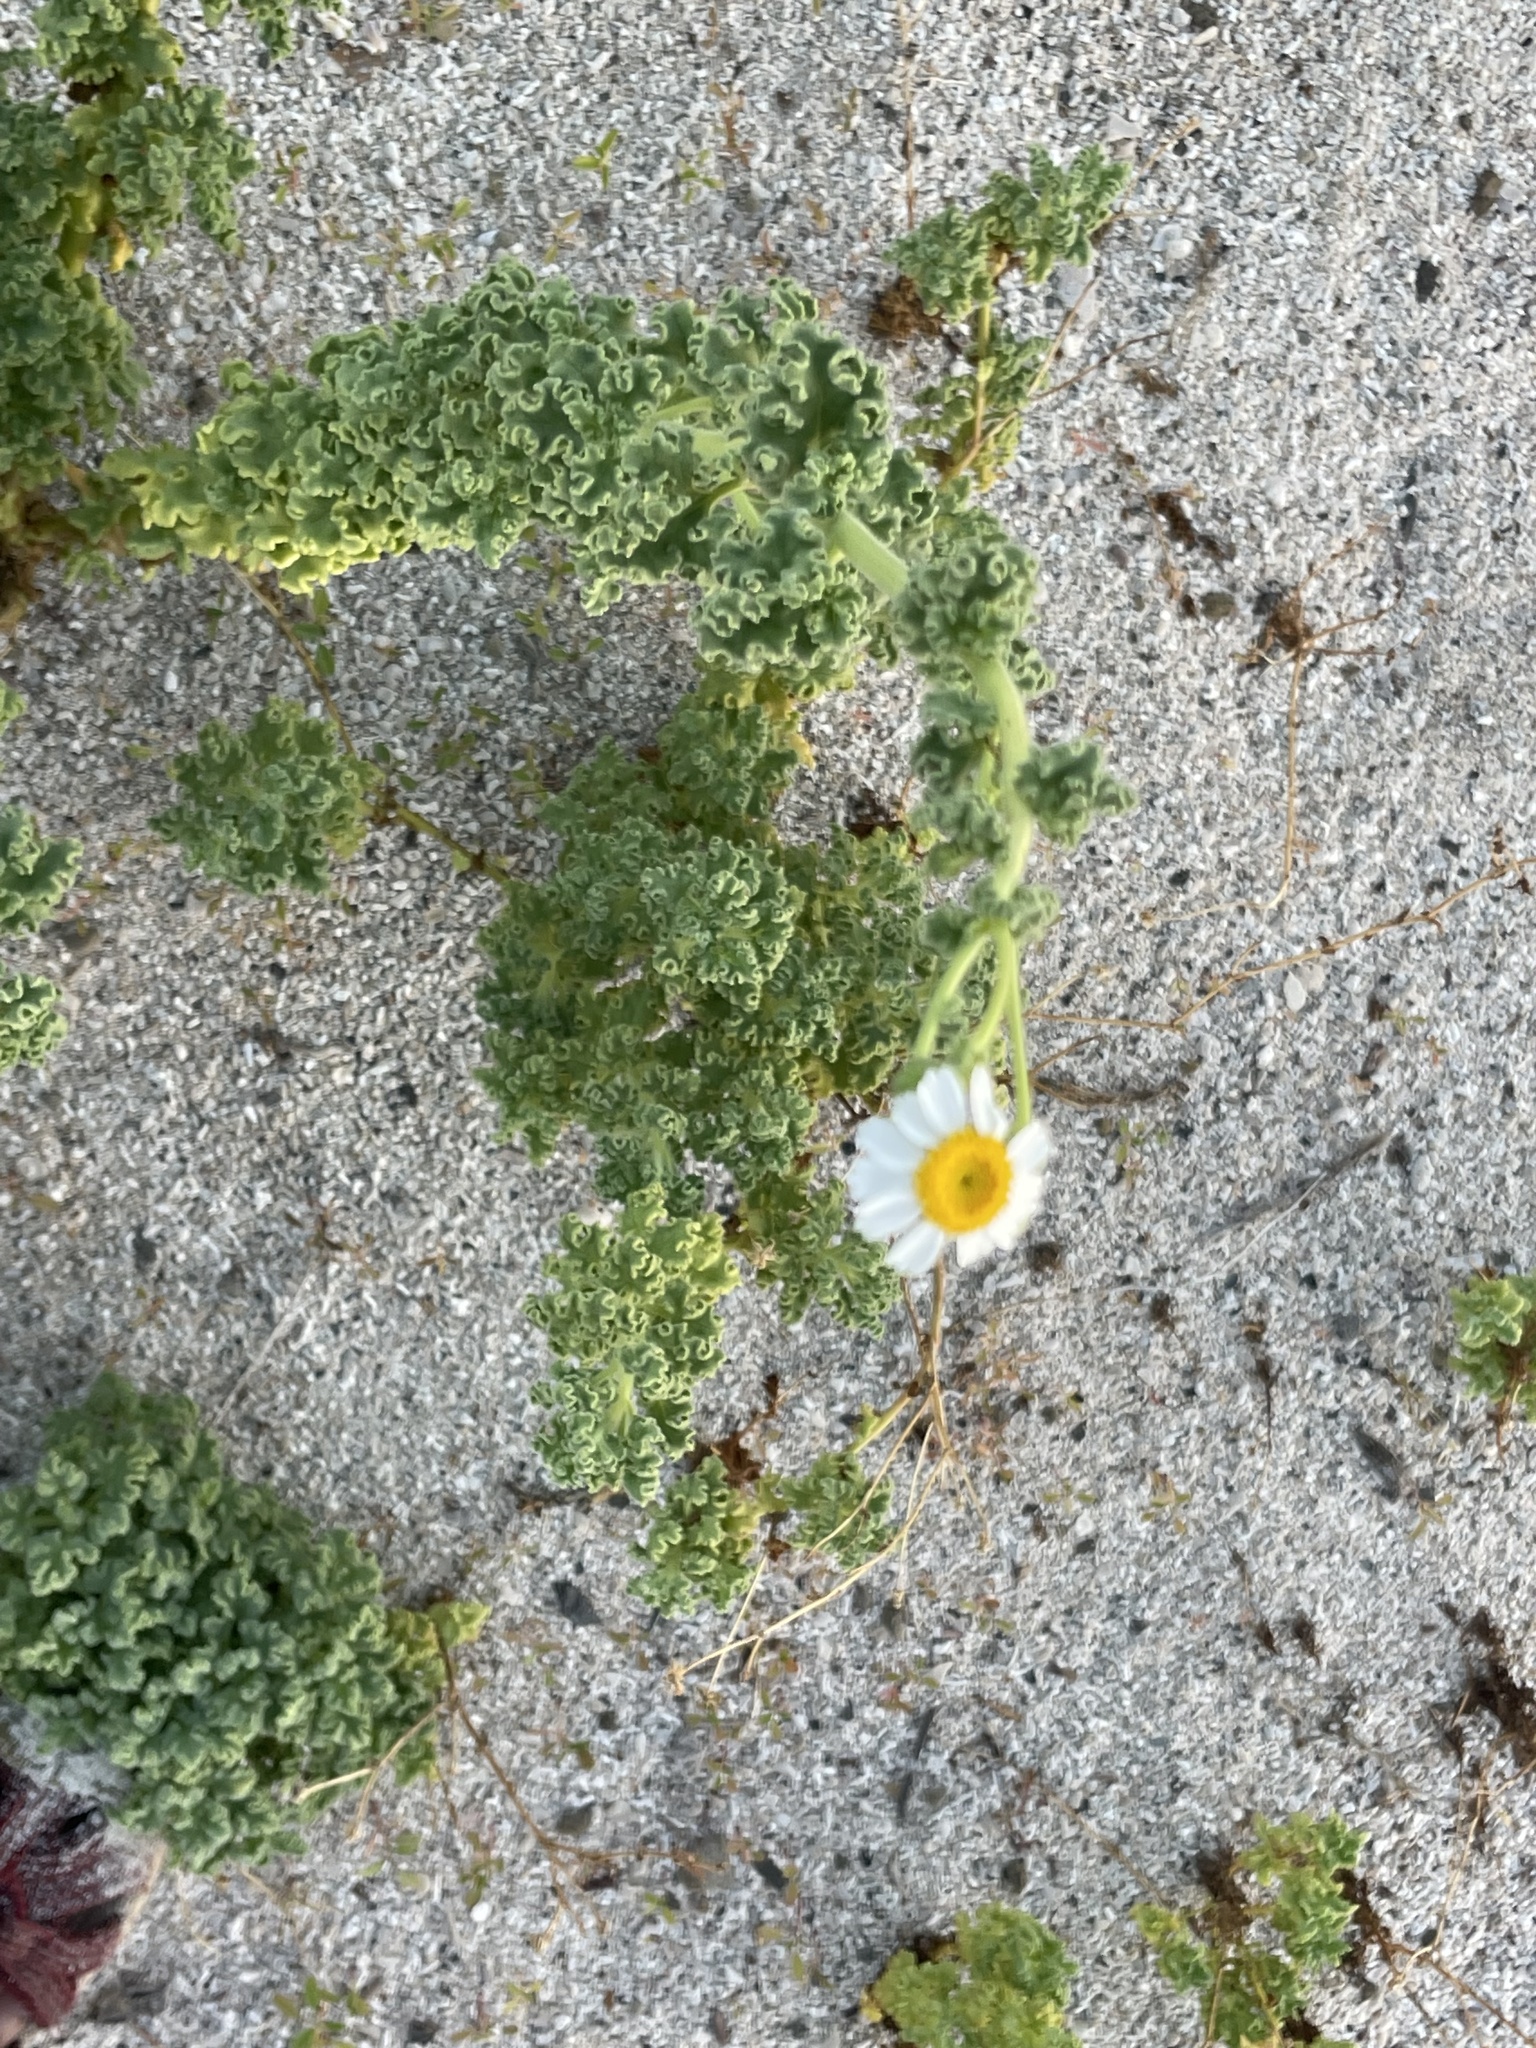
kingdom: Plantae
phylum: Tracheophyta
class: Magnoliopsida
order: Asterales
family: Asteraceae
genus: Perityle
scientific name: Perityle crassifolia
